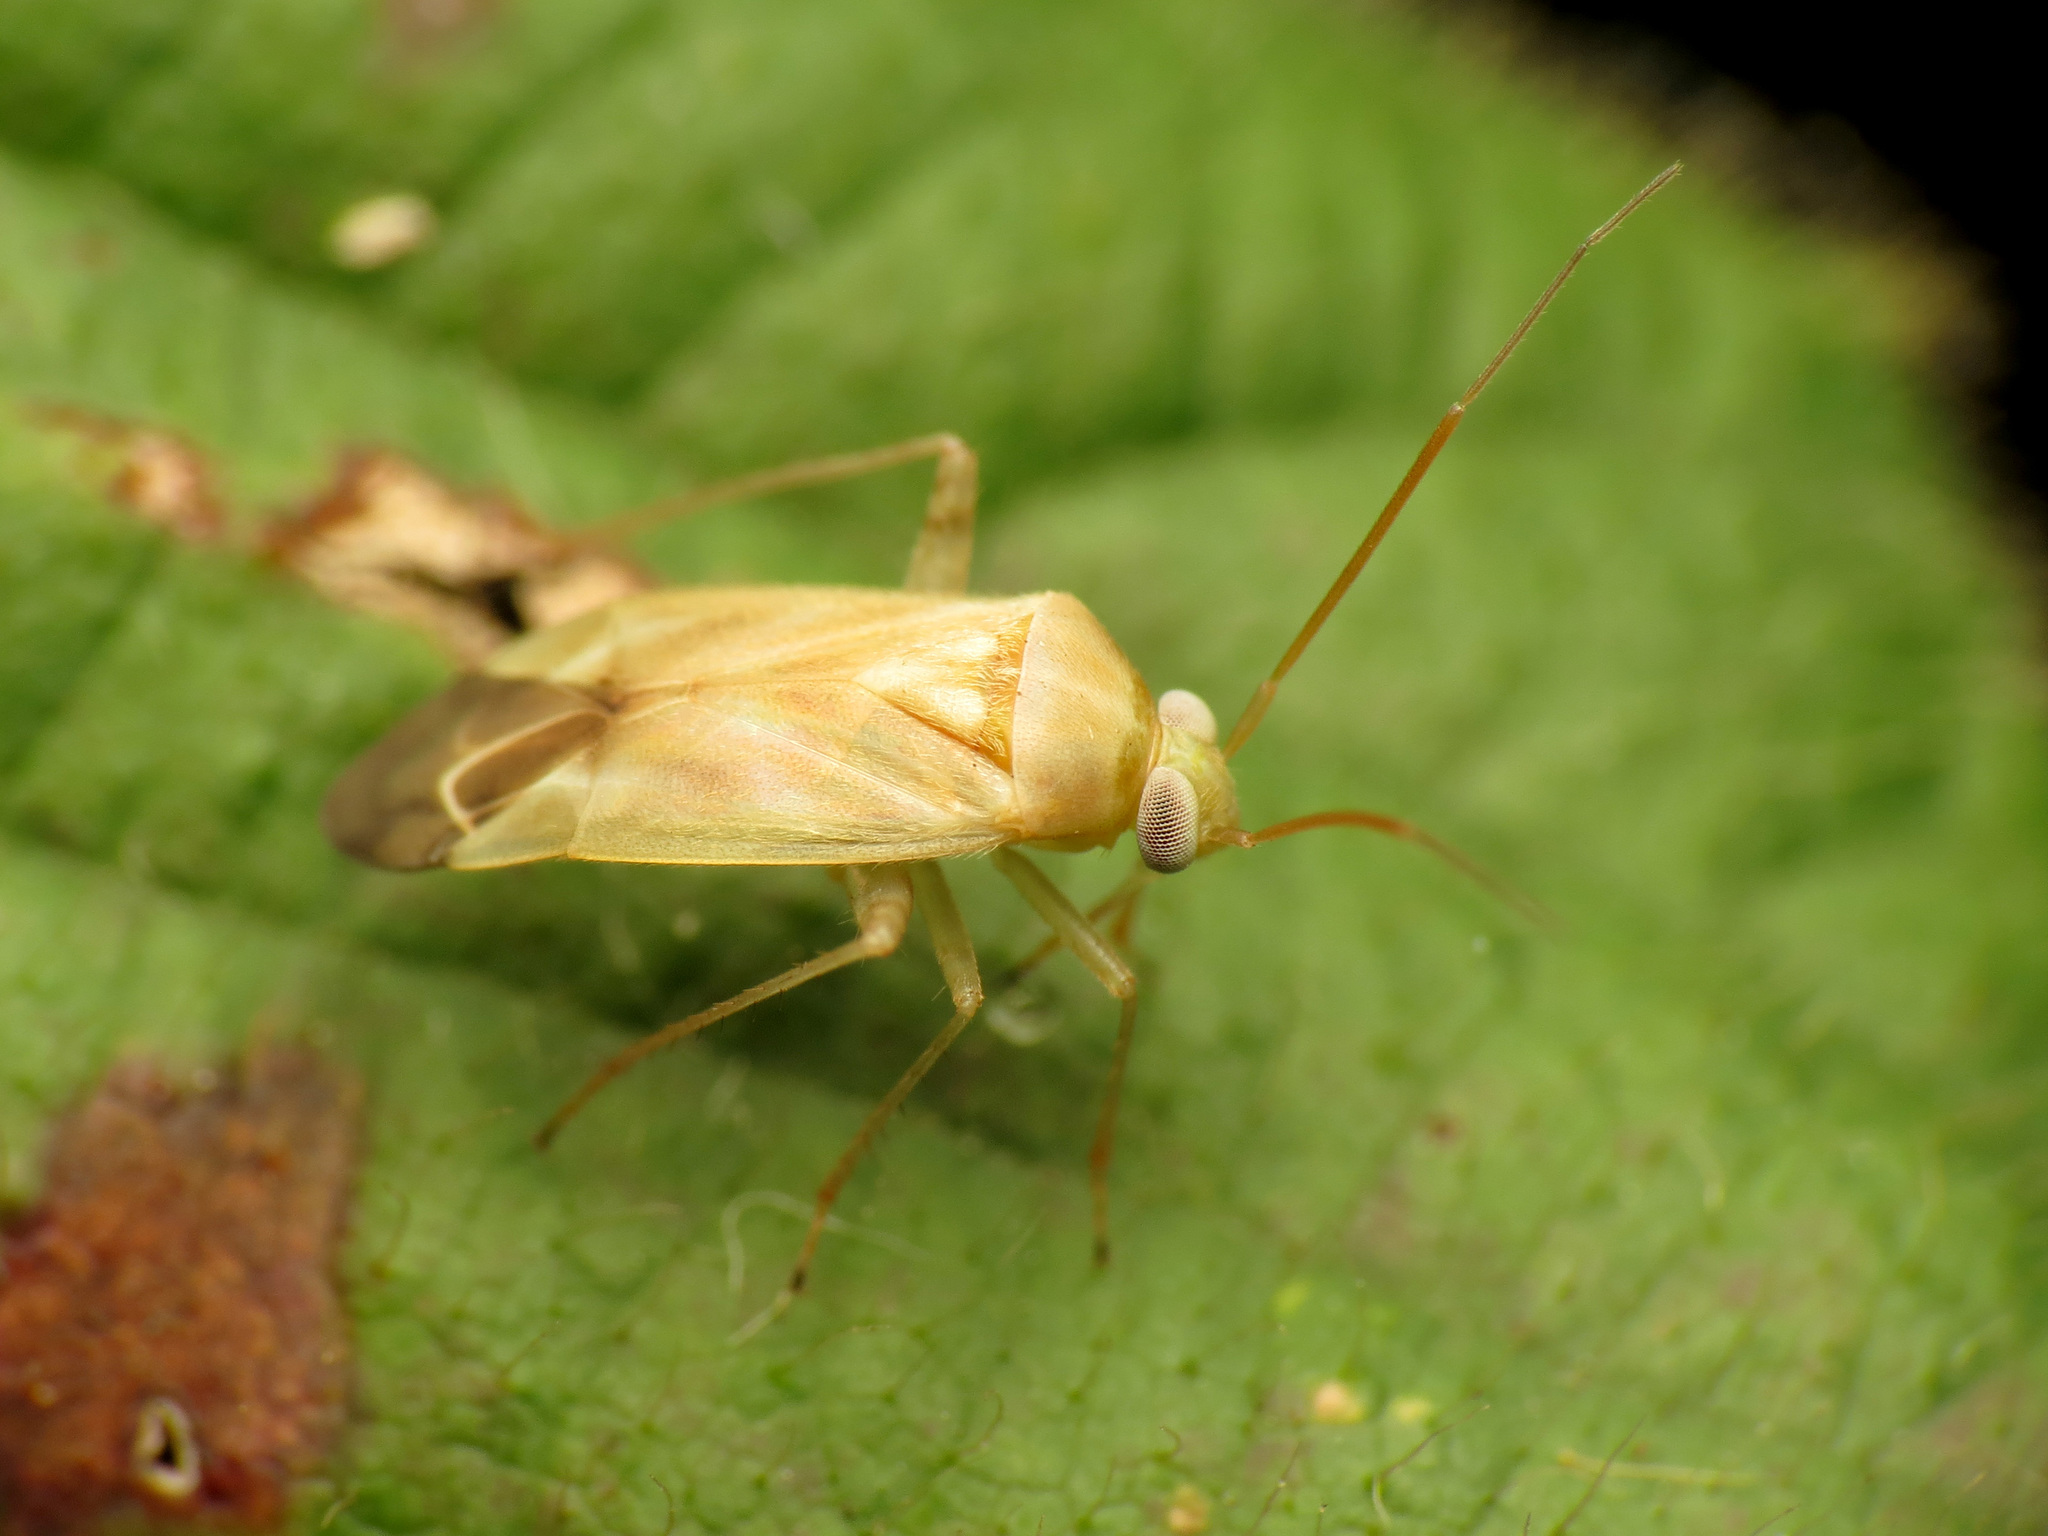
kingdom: Animalia
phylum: Arthropoda
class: Insecta
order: Hemiptera
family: Miridae
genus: Taylorilygus
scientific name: Taylorilygus apicalis
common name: Plant bug
